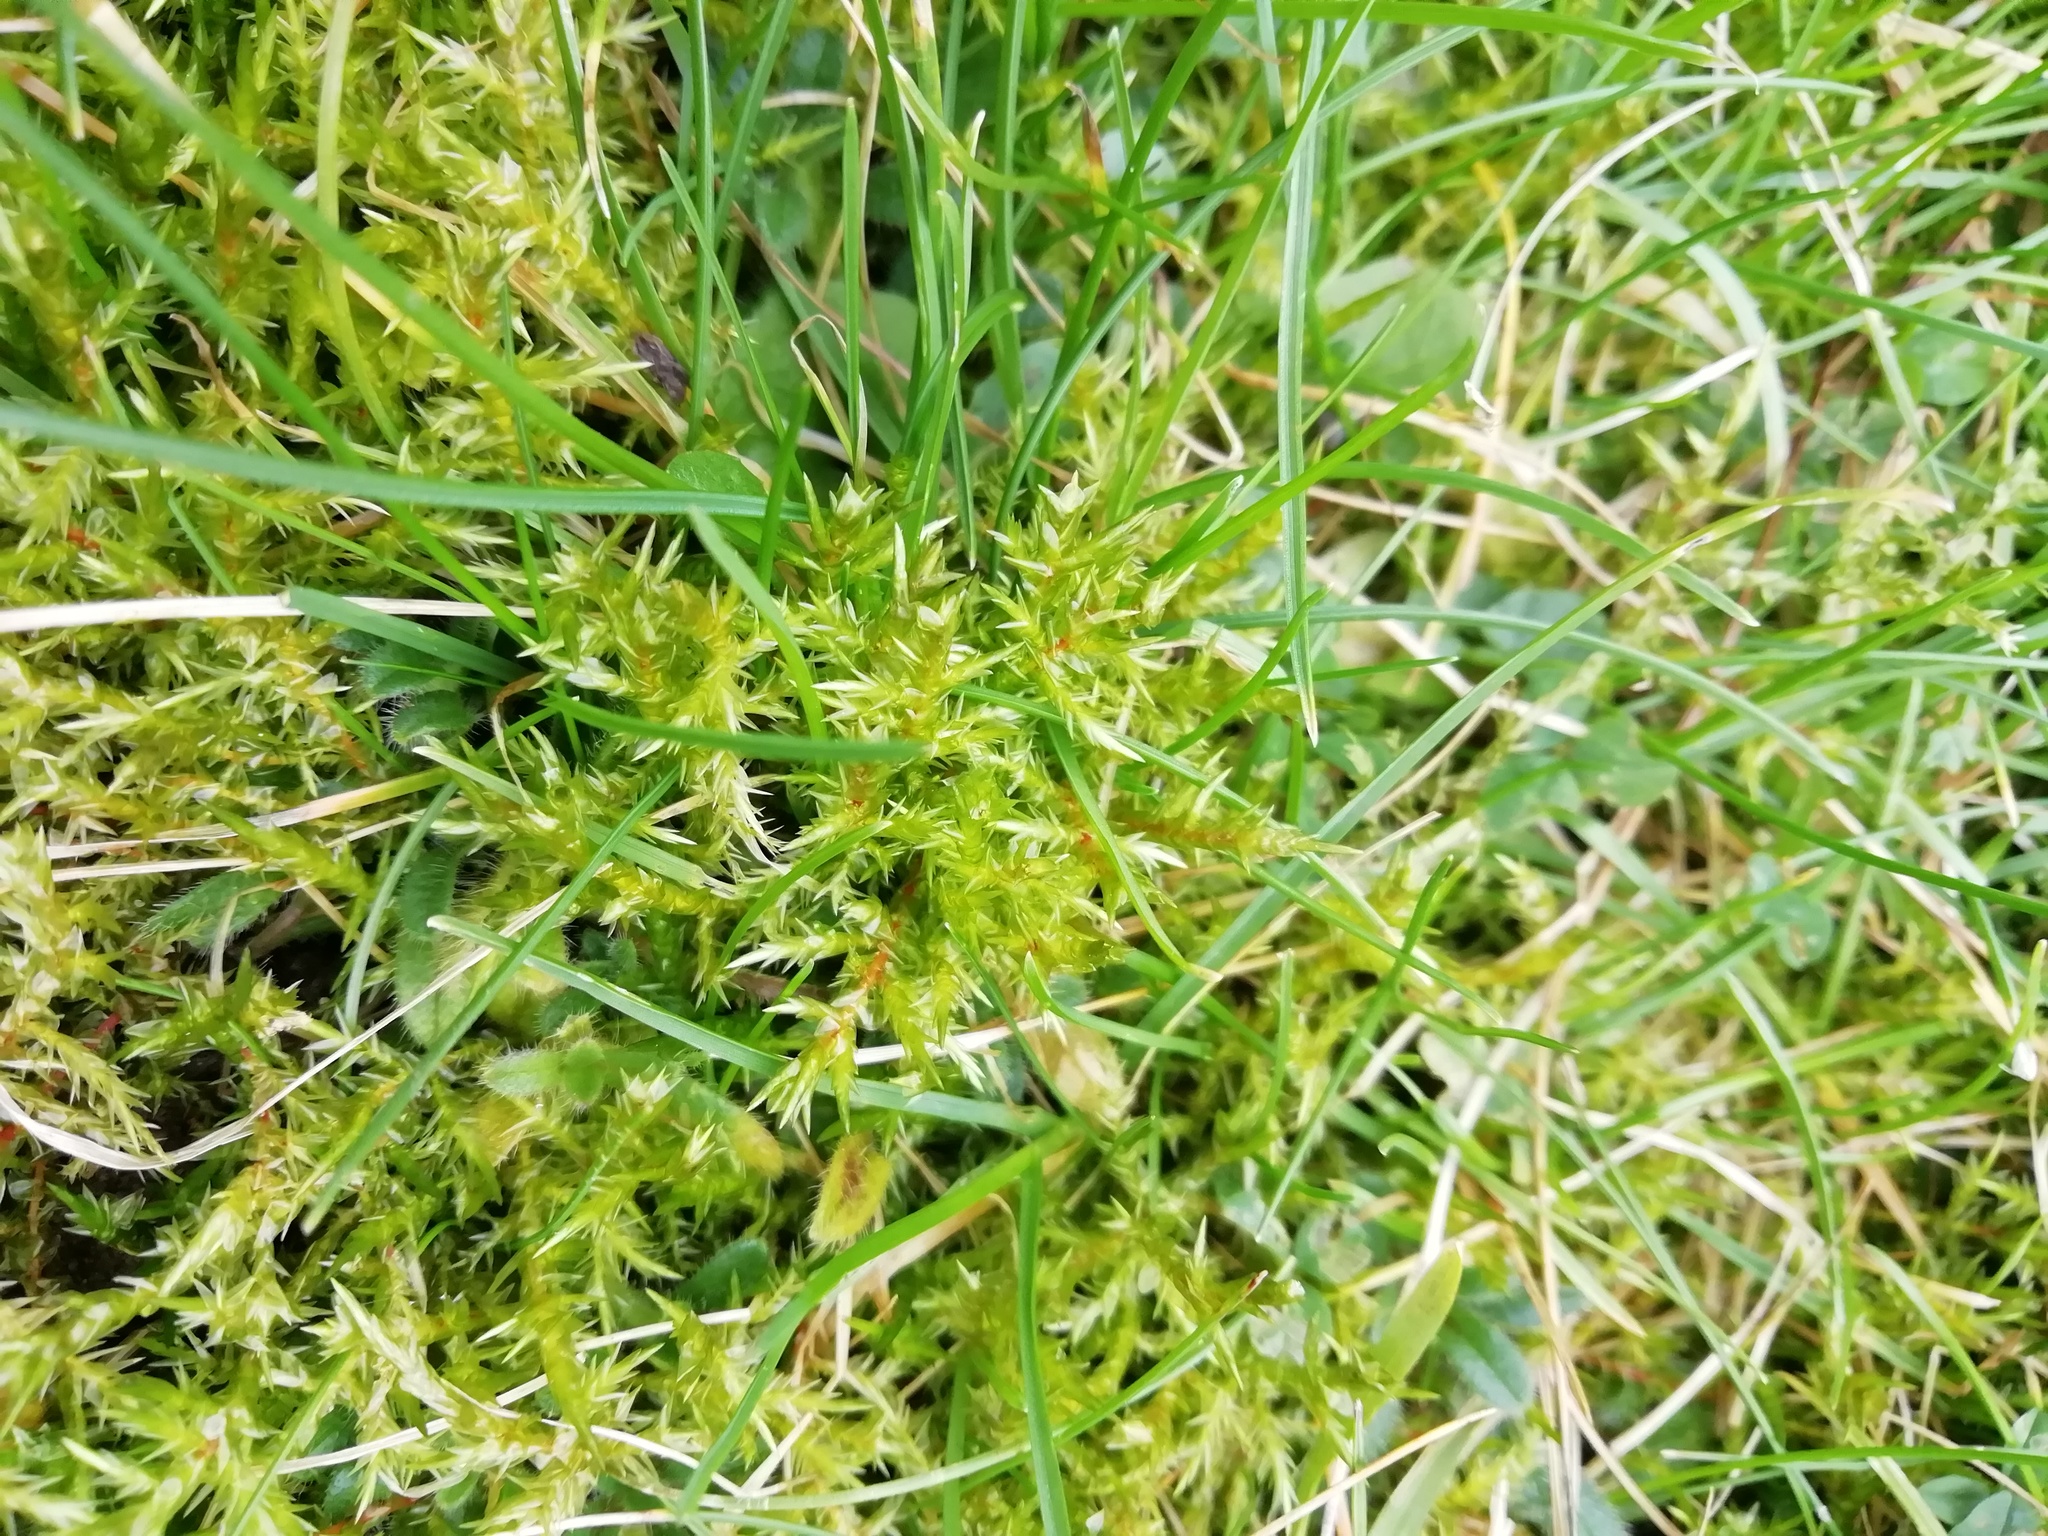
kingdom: Plantae
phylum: Bryophyta
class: Bryopsida
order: Hypnales
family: Pylaisiaceae
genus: Calliergonella
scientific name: Calliergonella cuspidata
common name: Common large wetland moss
